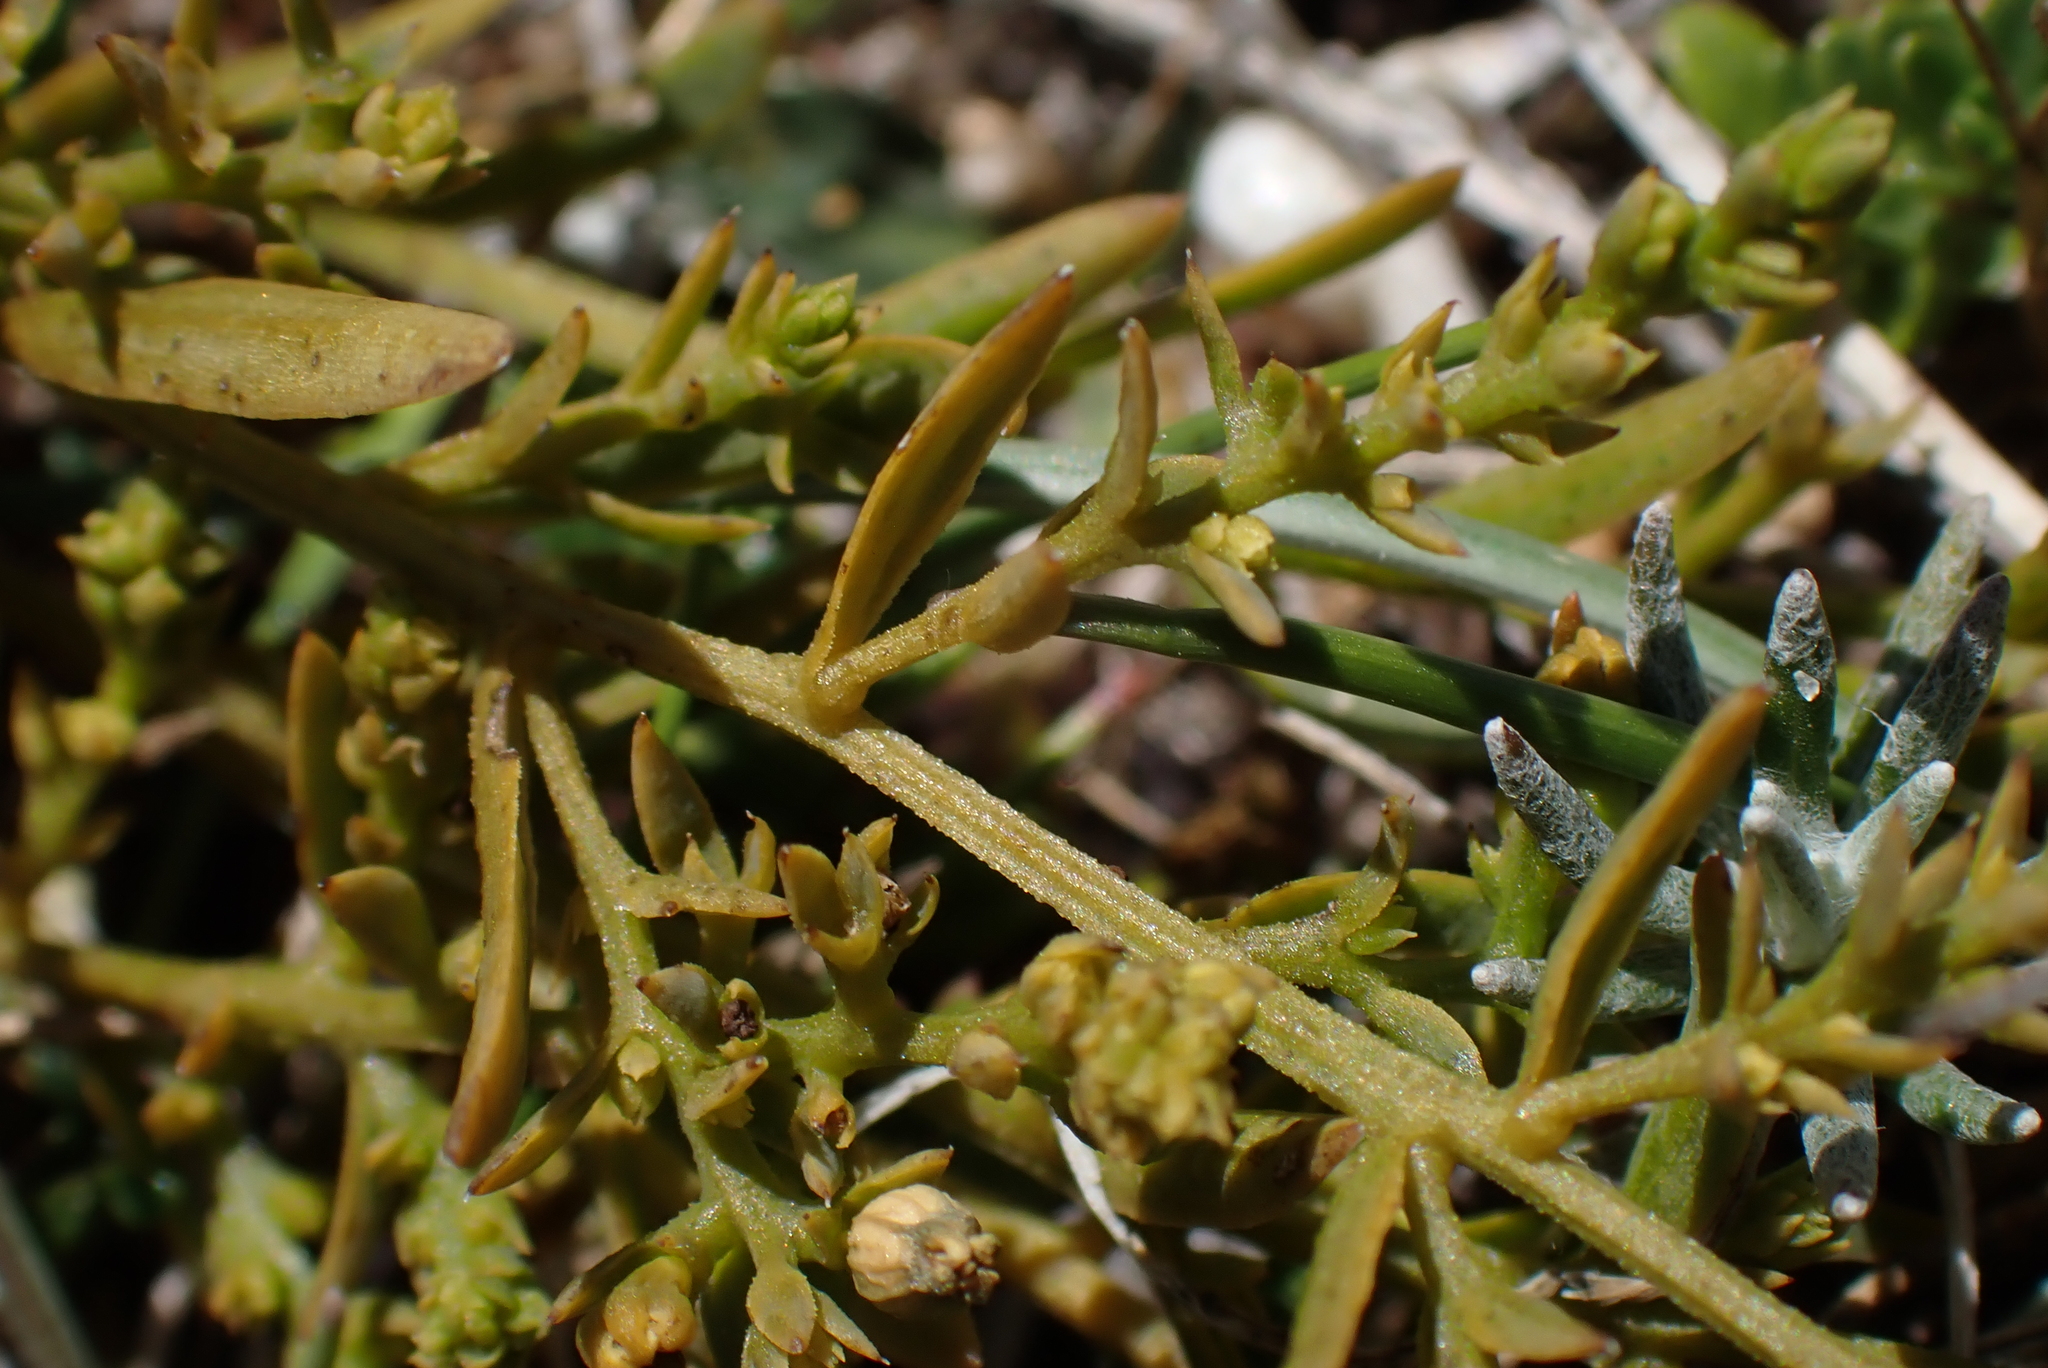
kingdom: Plantae
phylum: Tracheophyta
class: Magnoliopsida
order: Santalales
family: Thesiaceae
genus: Thesium
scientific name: Thesium humifusum
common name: Bastard-toadflax
